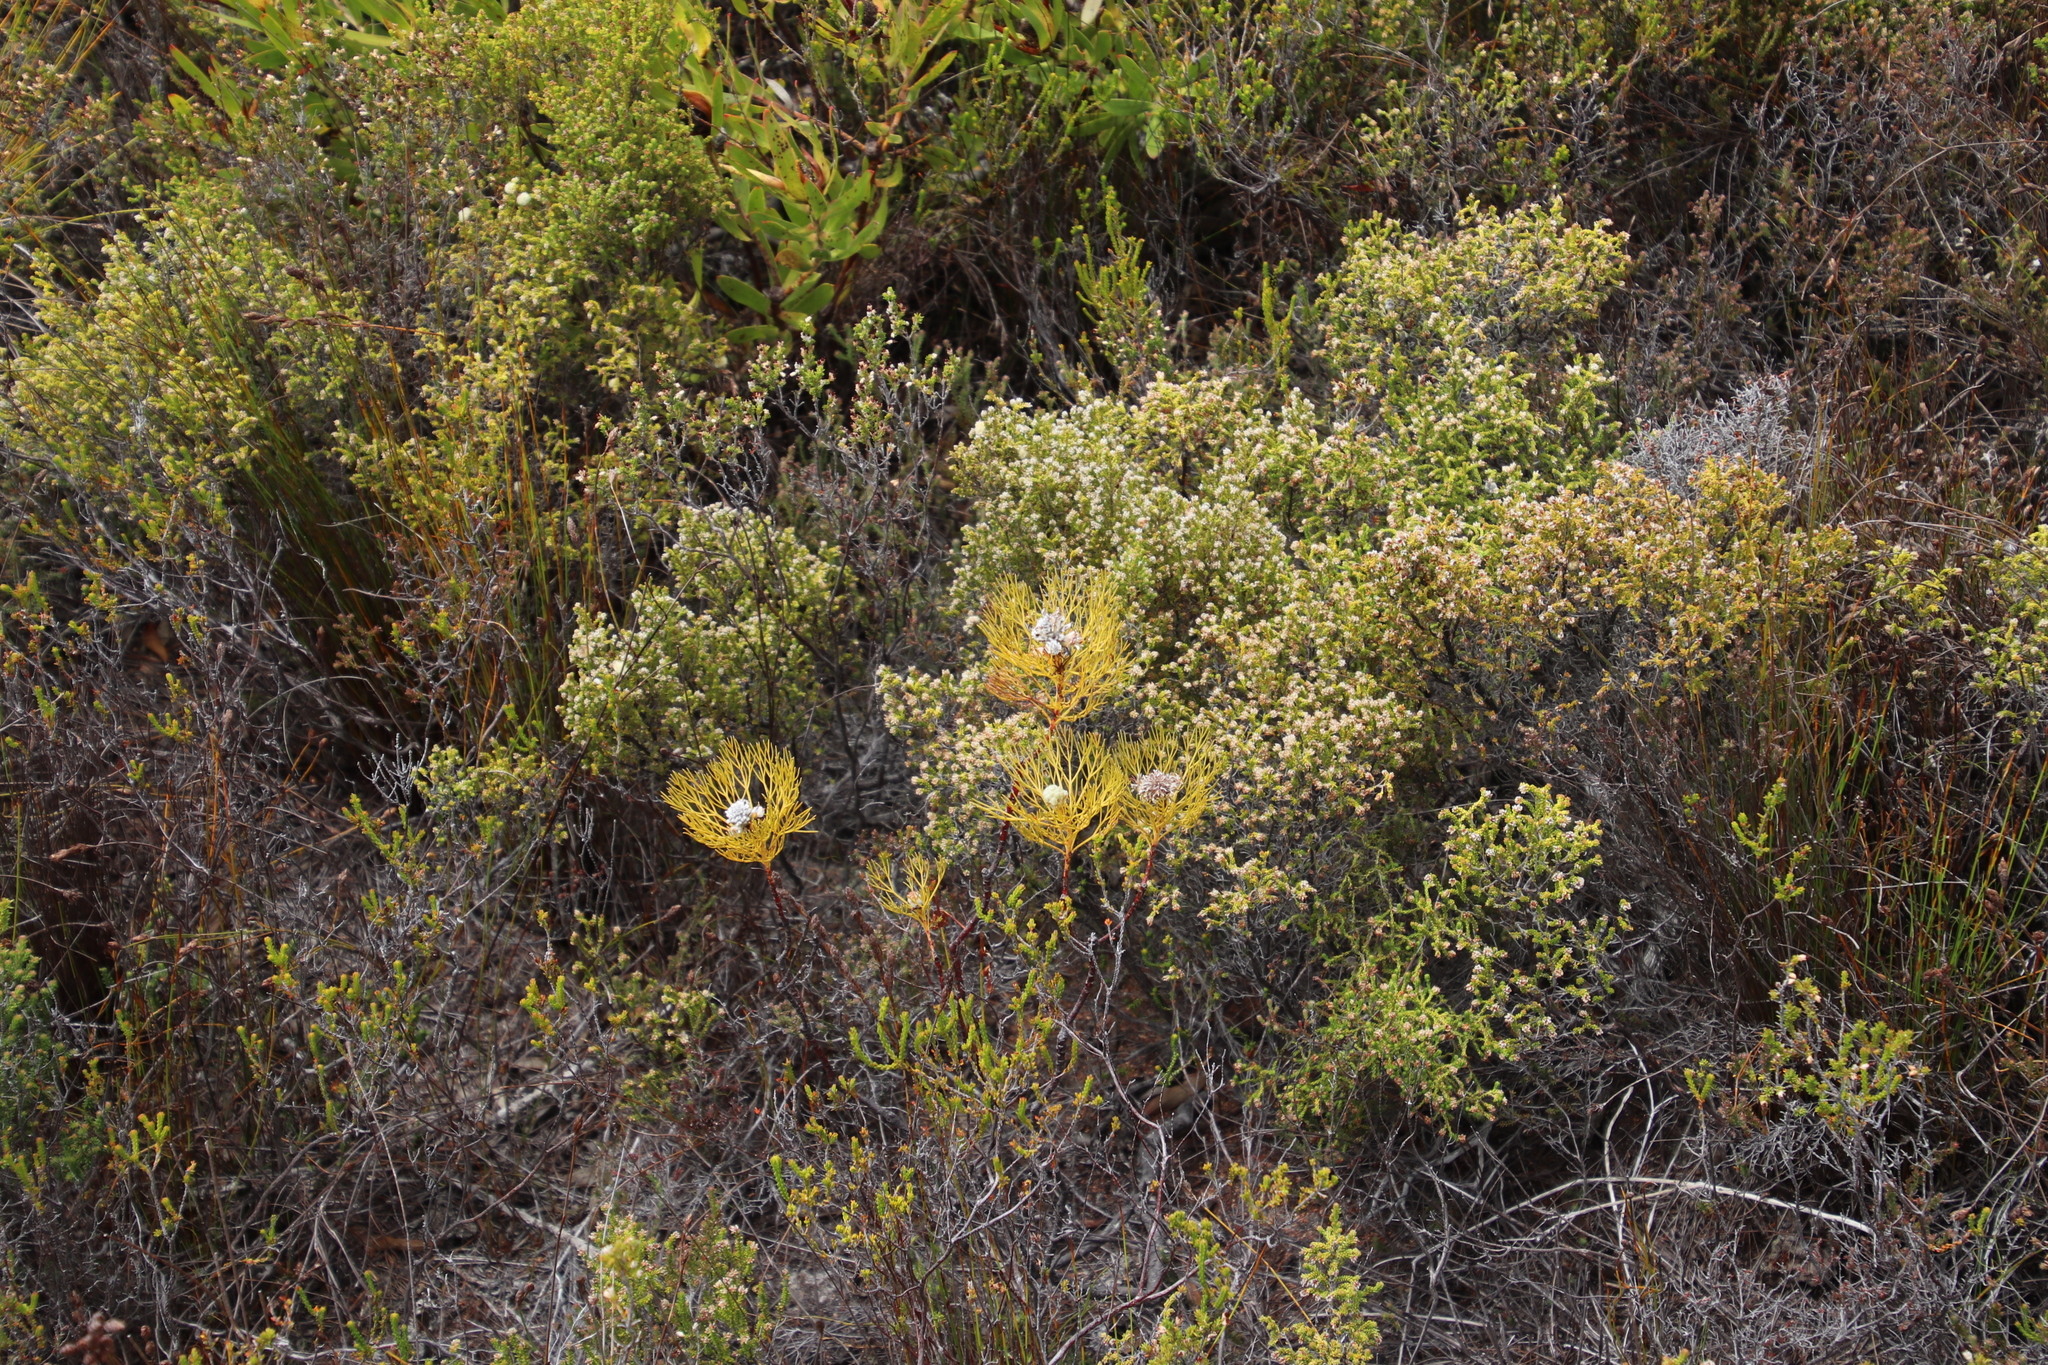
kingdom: Plantae
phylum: Tracheophyta
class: Magnoliopsida
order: Proteales
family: Proteaceae
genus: Serruria
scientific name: Serruria glomerata
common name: Cluster spiderhead
